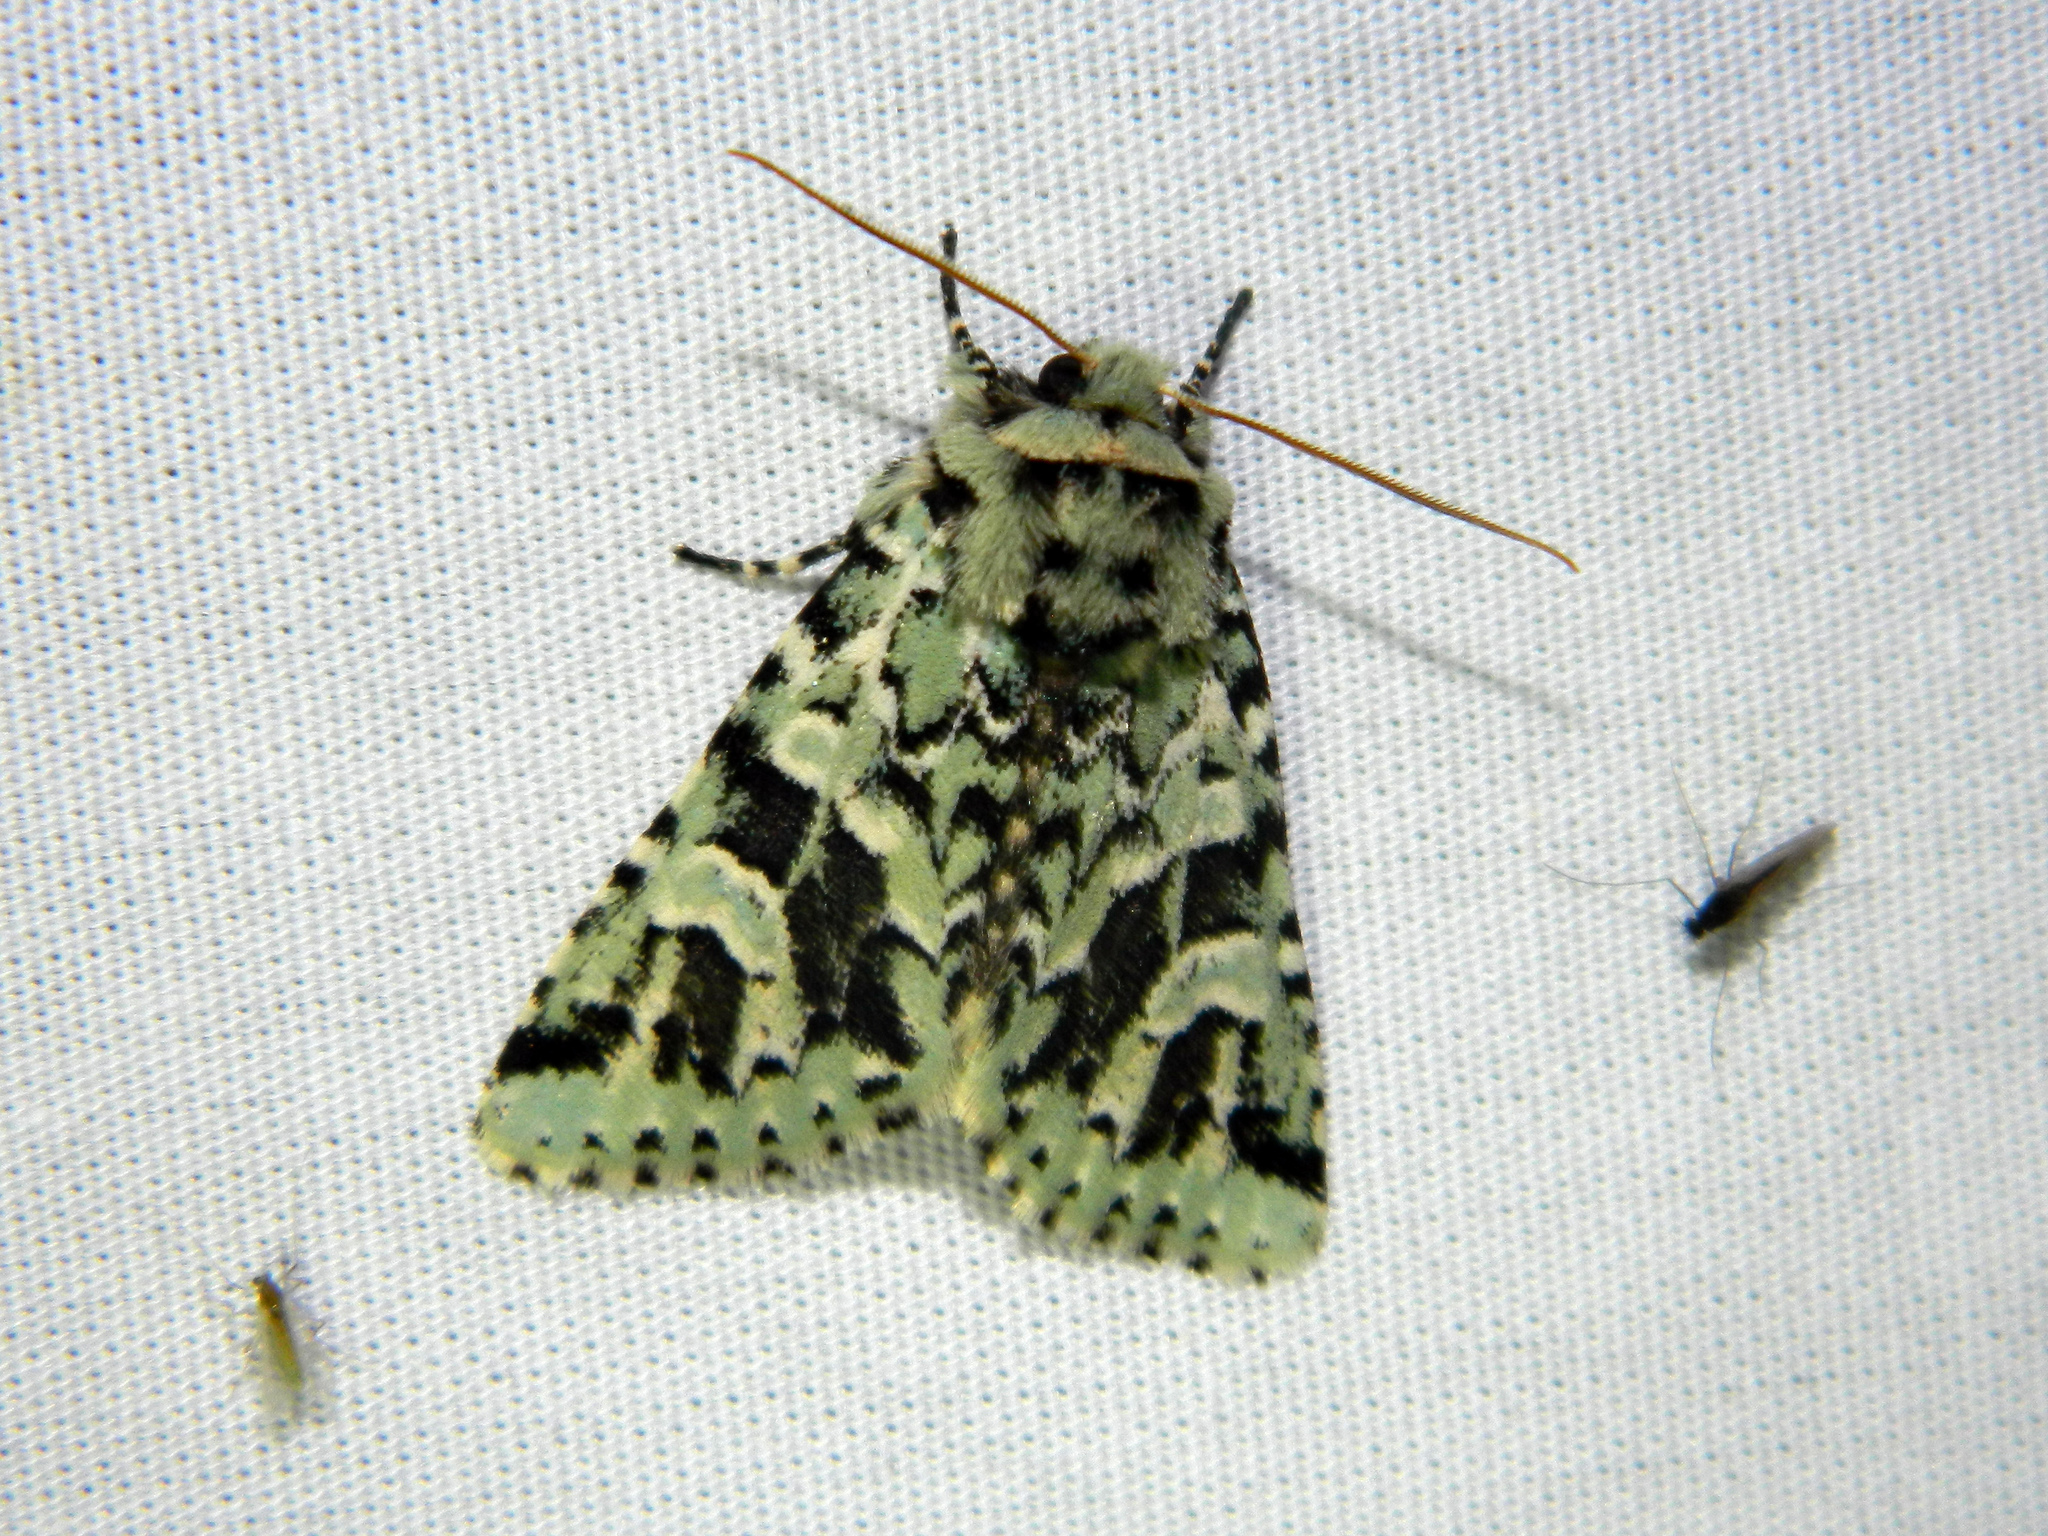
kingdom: Animalia
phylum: Arthropoda
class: Insecta
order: Lepidoptera
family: Noctuidae
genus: Feralia
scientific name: Feralia comstocki
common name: Comstock's sallow
